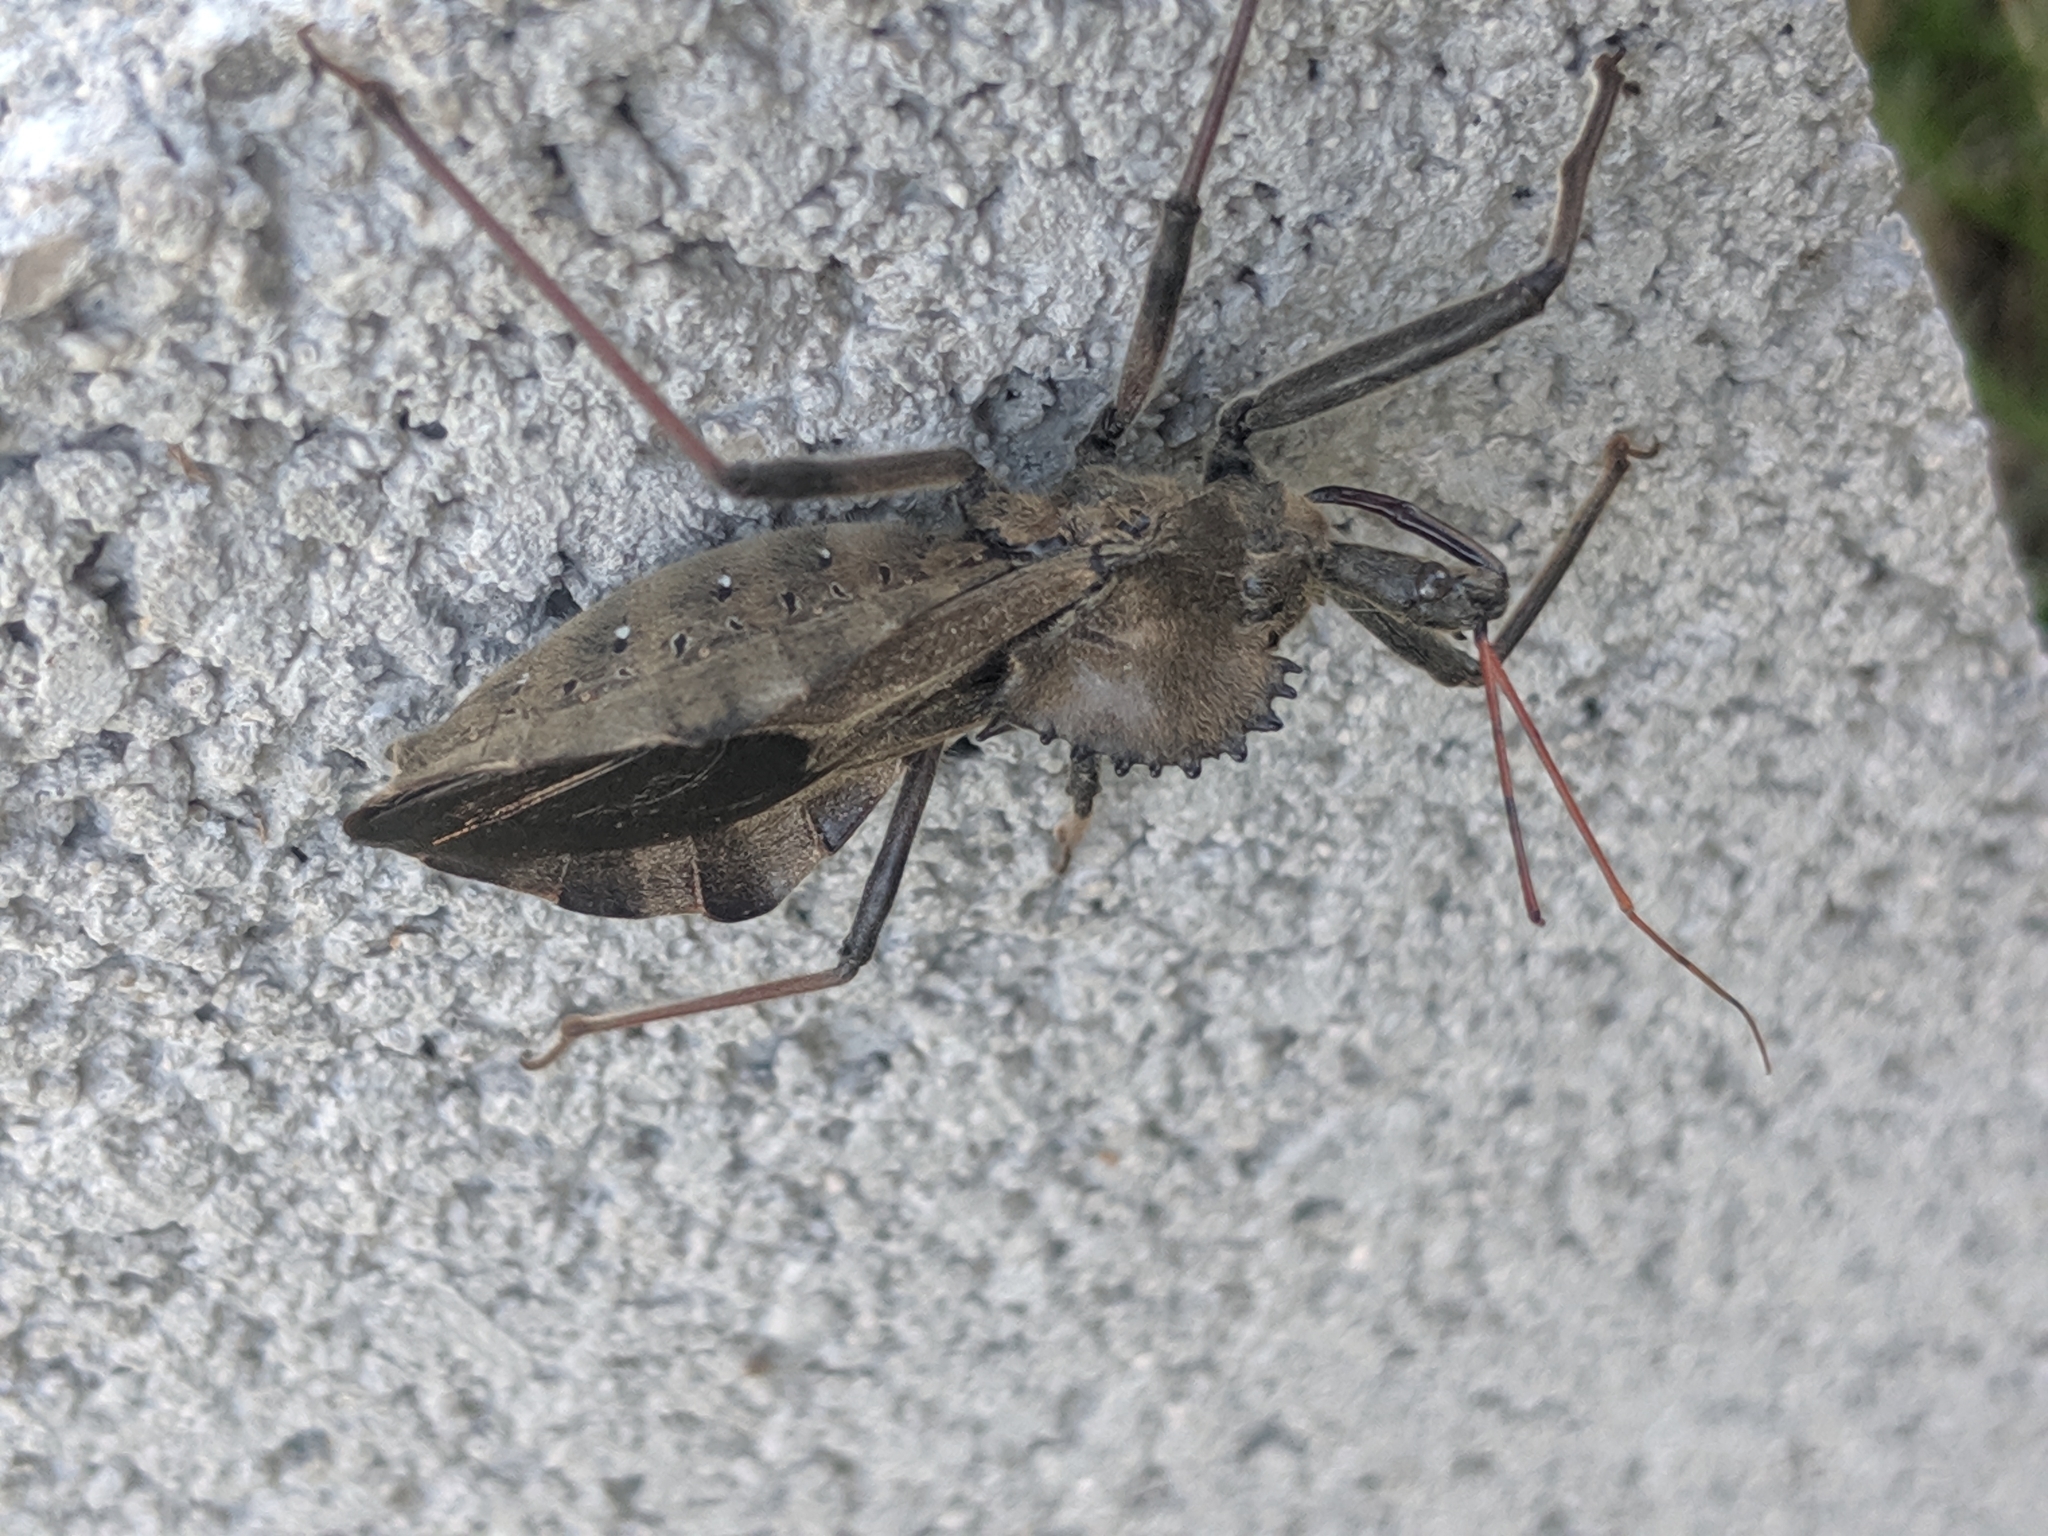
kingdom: Animalia
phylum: Arthropoda
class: Insecta
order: Hemiptera
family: Reduviidae
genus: Arilus
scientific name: Arilus cristatus
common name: North american wheel bug
